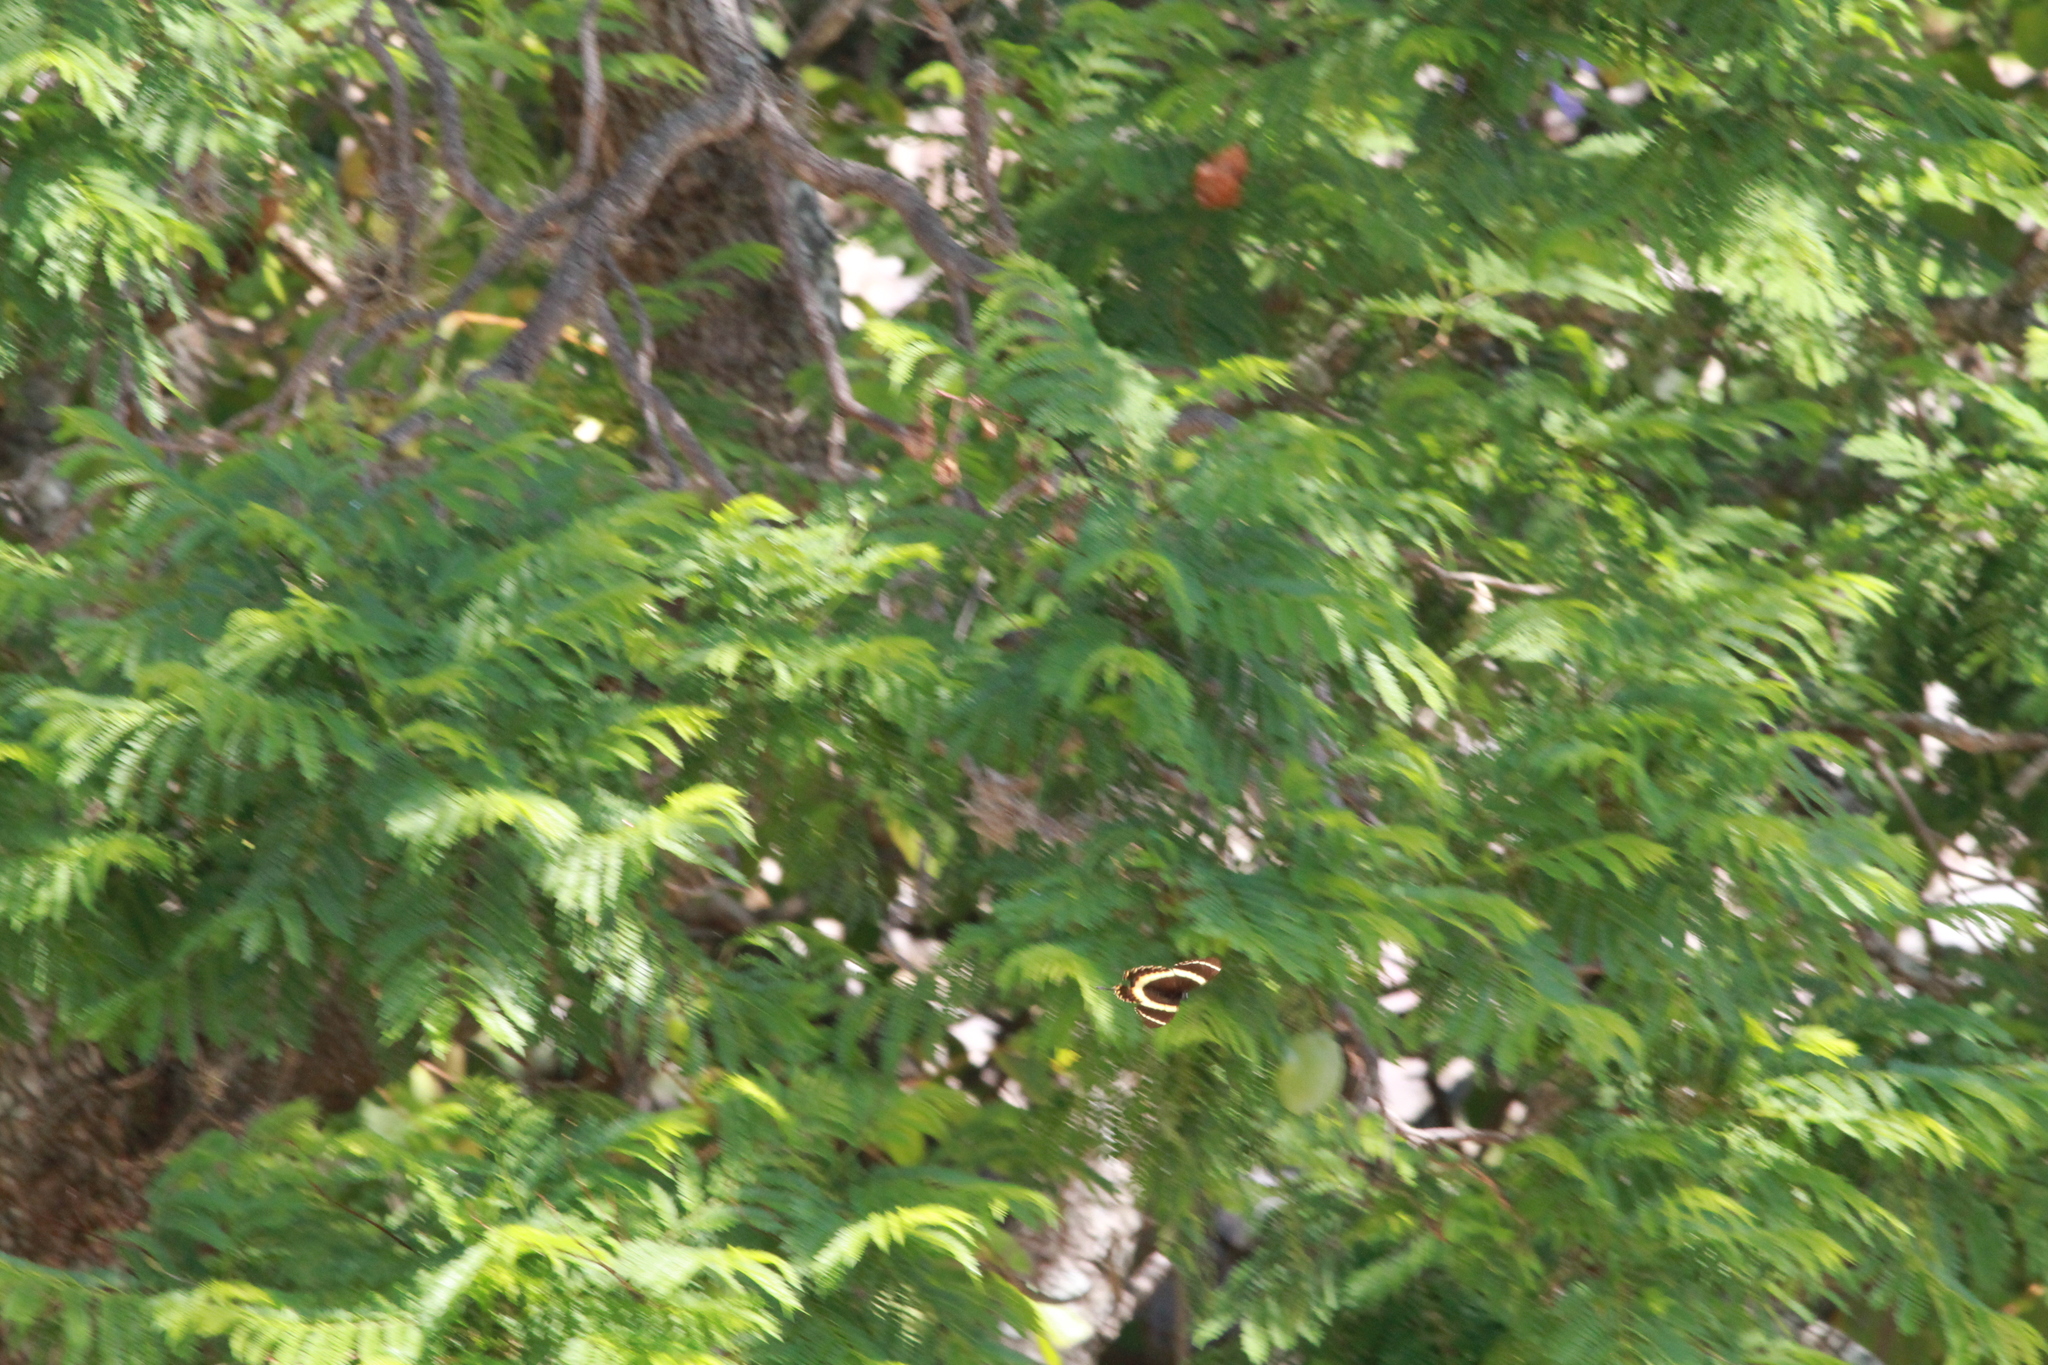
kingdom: Animalia
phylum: Arthropoda
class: Insecta
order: Lepidoptera
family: Papilionidae
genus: Papilio
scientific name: Papilio garamas
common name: Magnificent swallowtail
